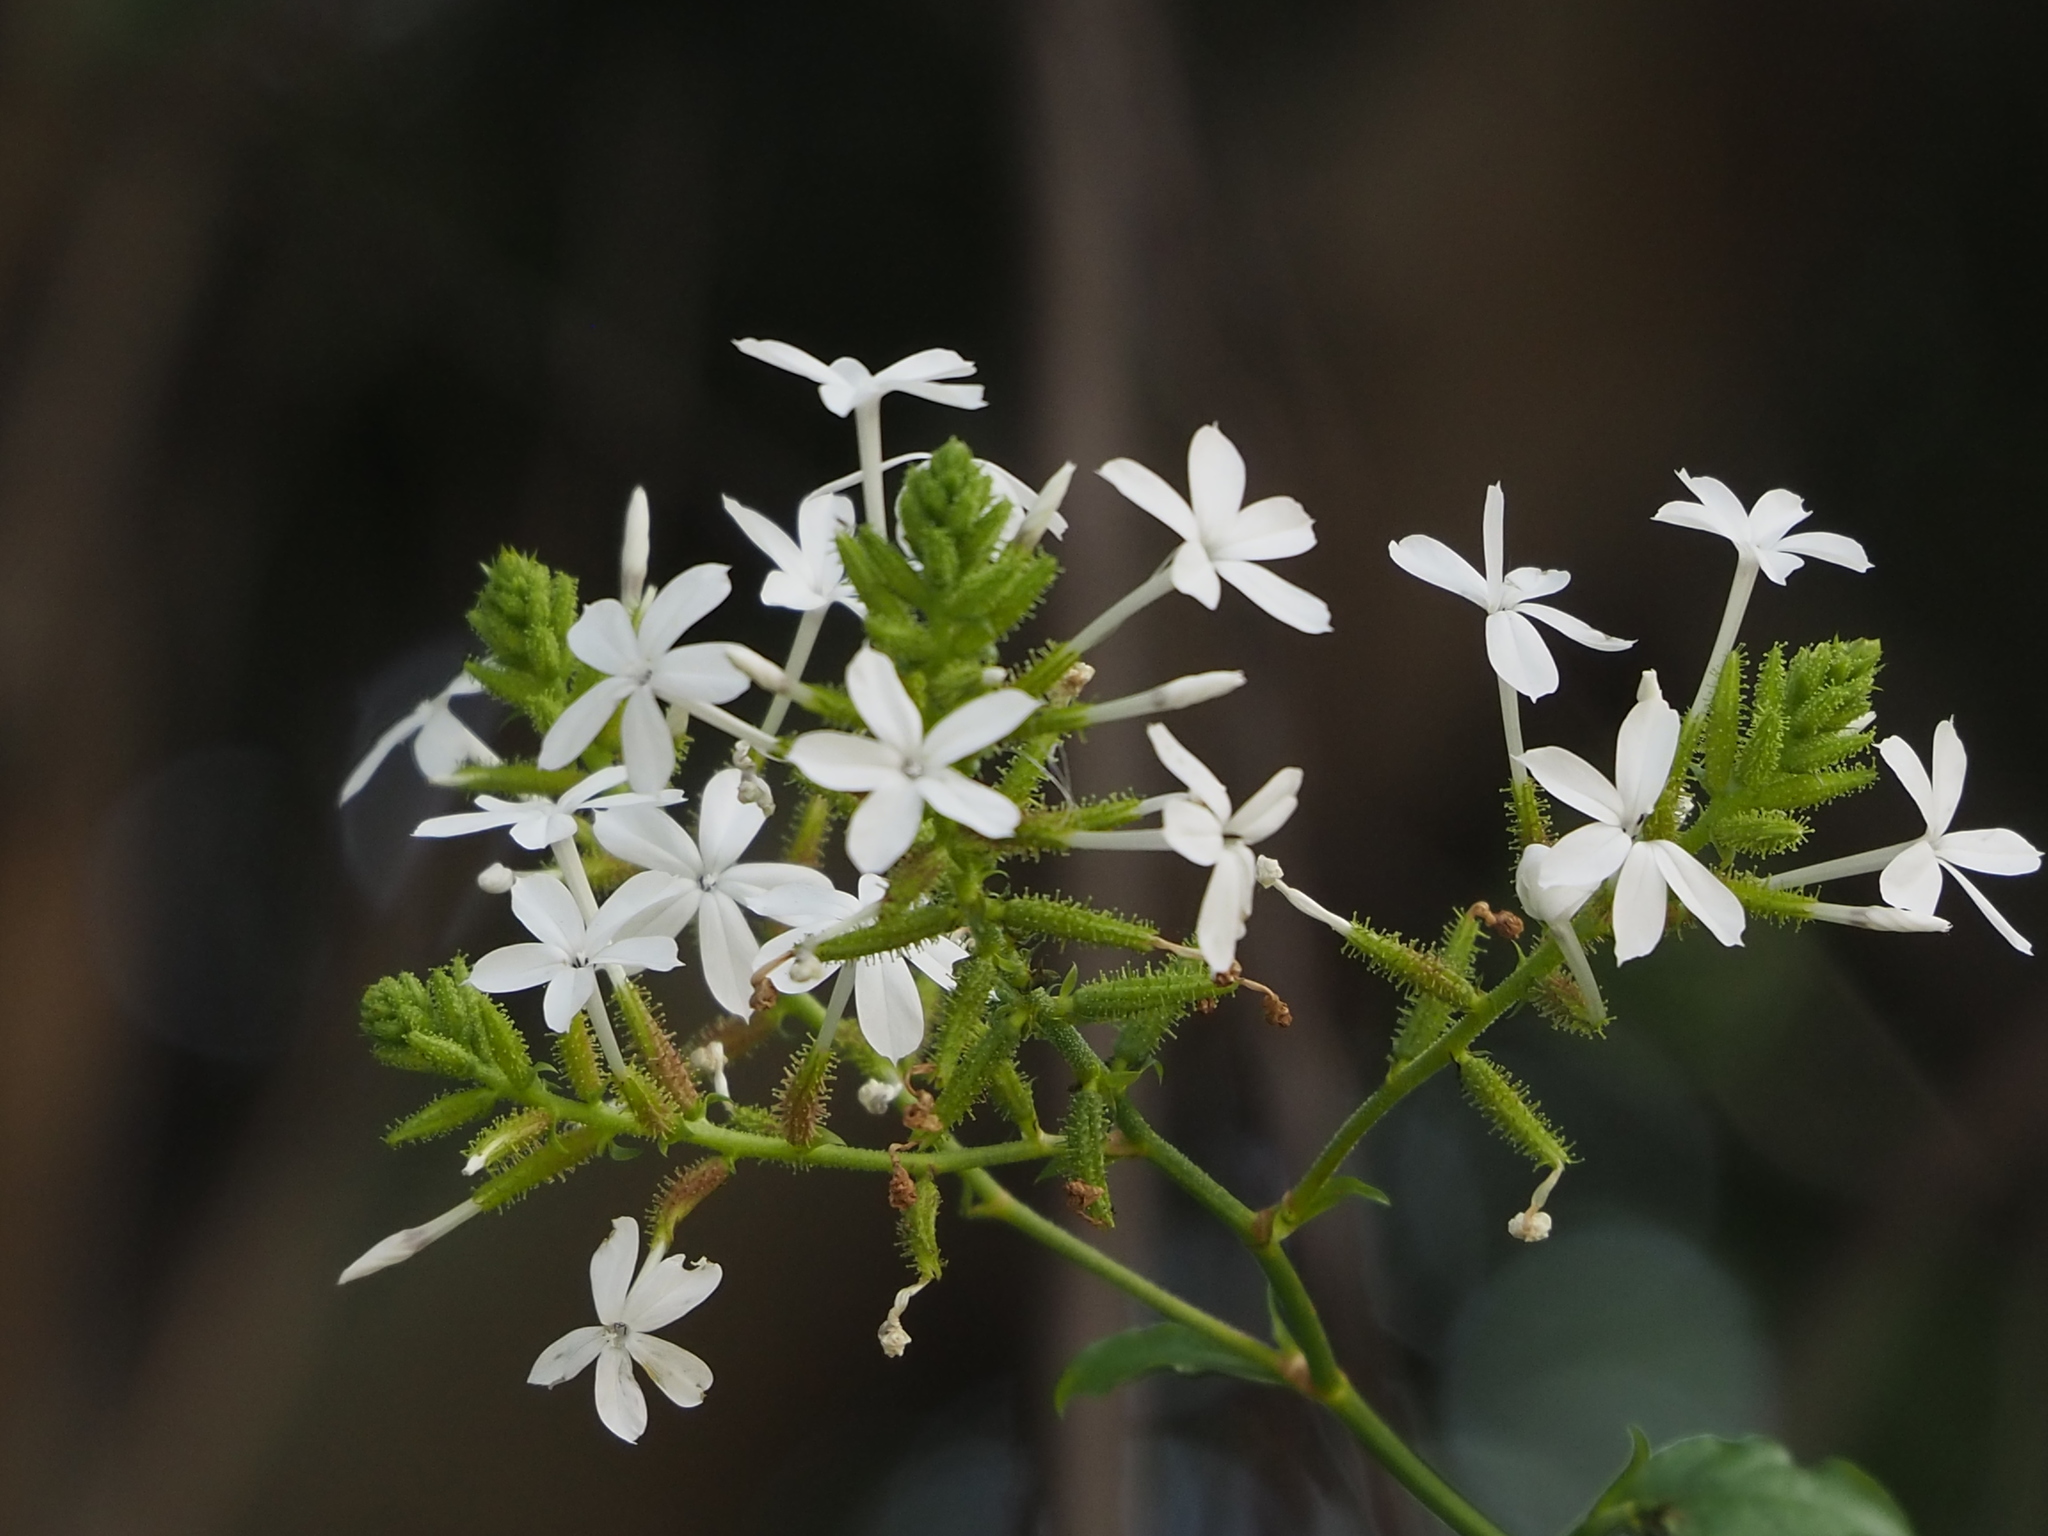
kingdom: Plantae
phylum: Tracheophyta
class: Magnoliopsida
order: Caryophyllales
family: Plumbaginaceae
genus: Plumbago
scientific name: Plumbago zeylanica
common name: Doctorbush
